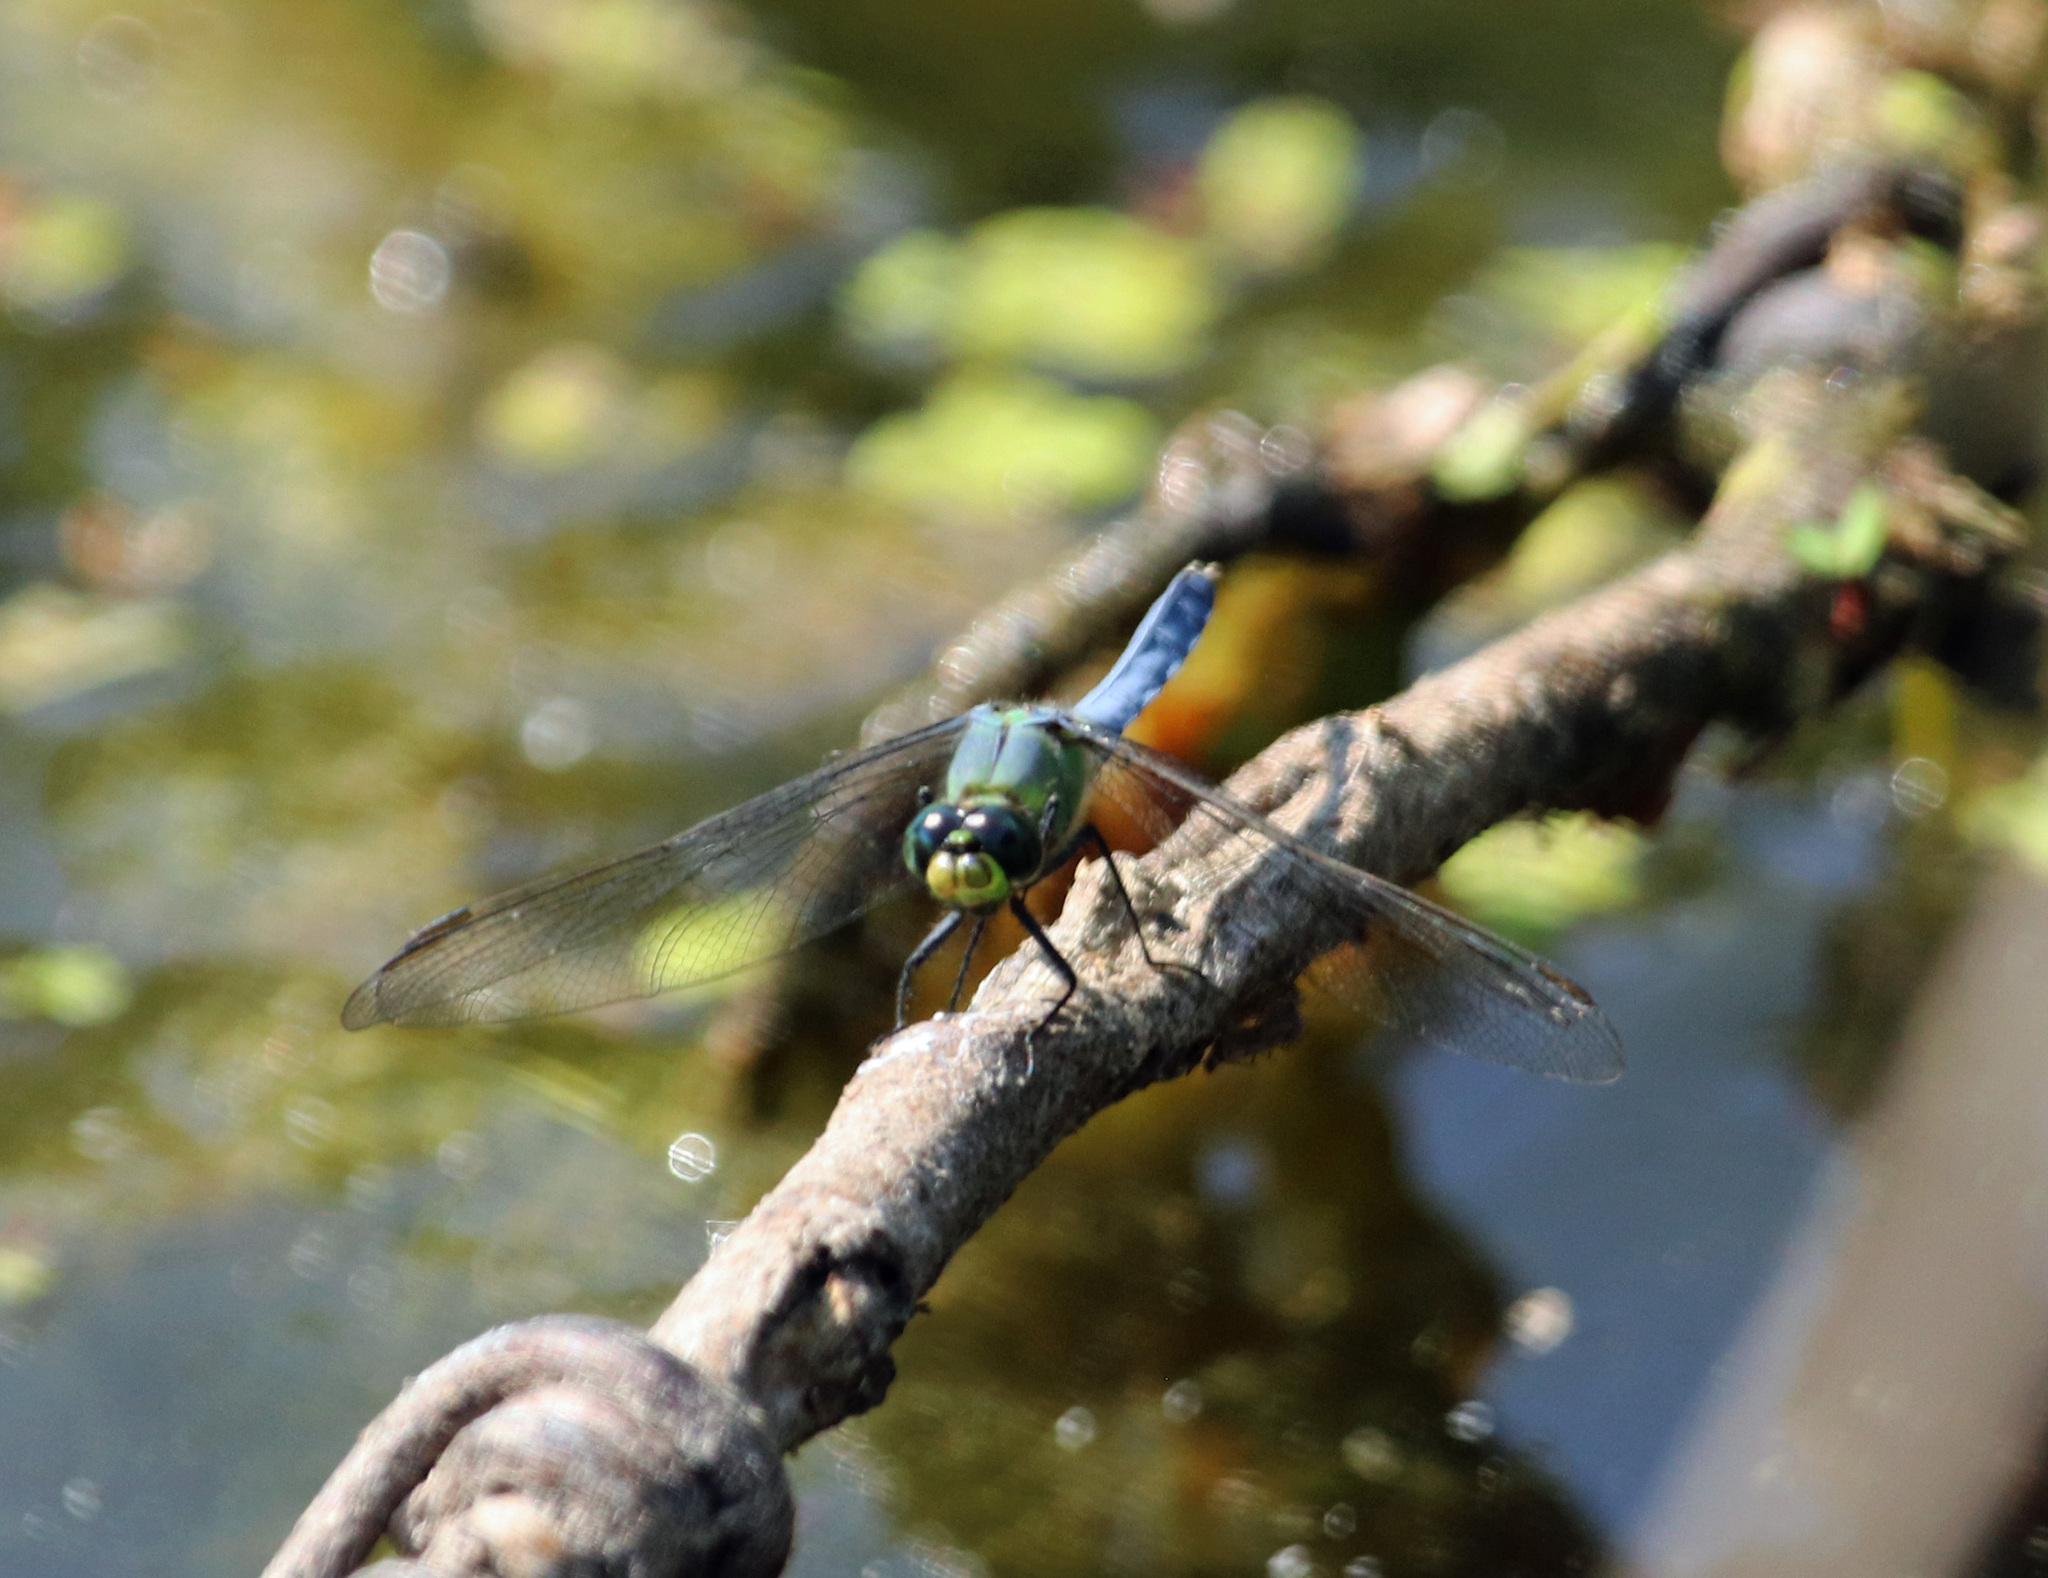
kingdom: Animalia
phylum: Arthropoda
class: Insecta
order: Odonata
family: Libellulidae
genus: Erythemis
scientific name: Erythemis simplicicollis
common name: Eastern pondhawk
